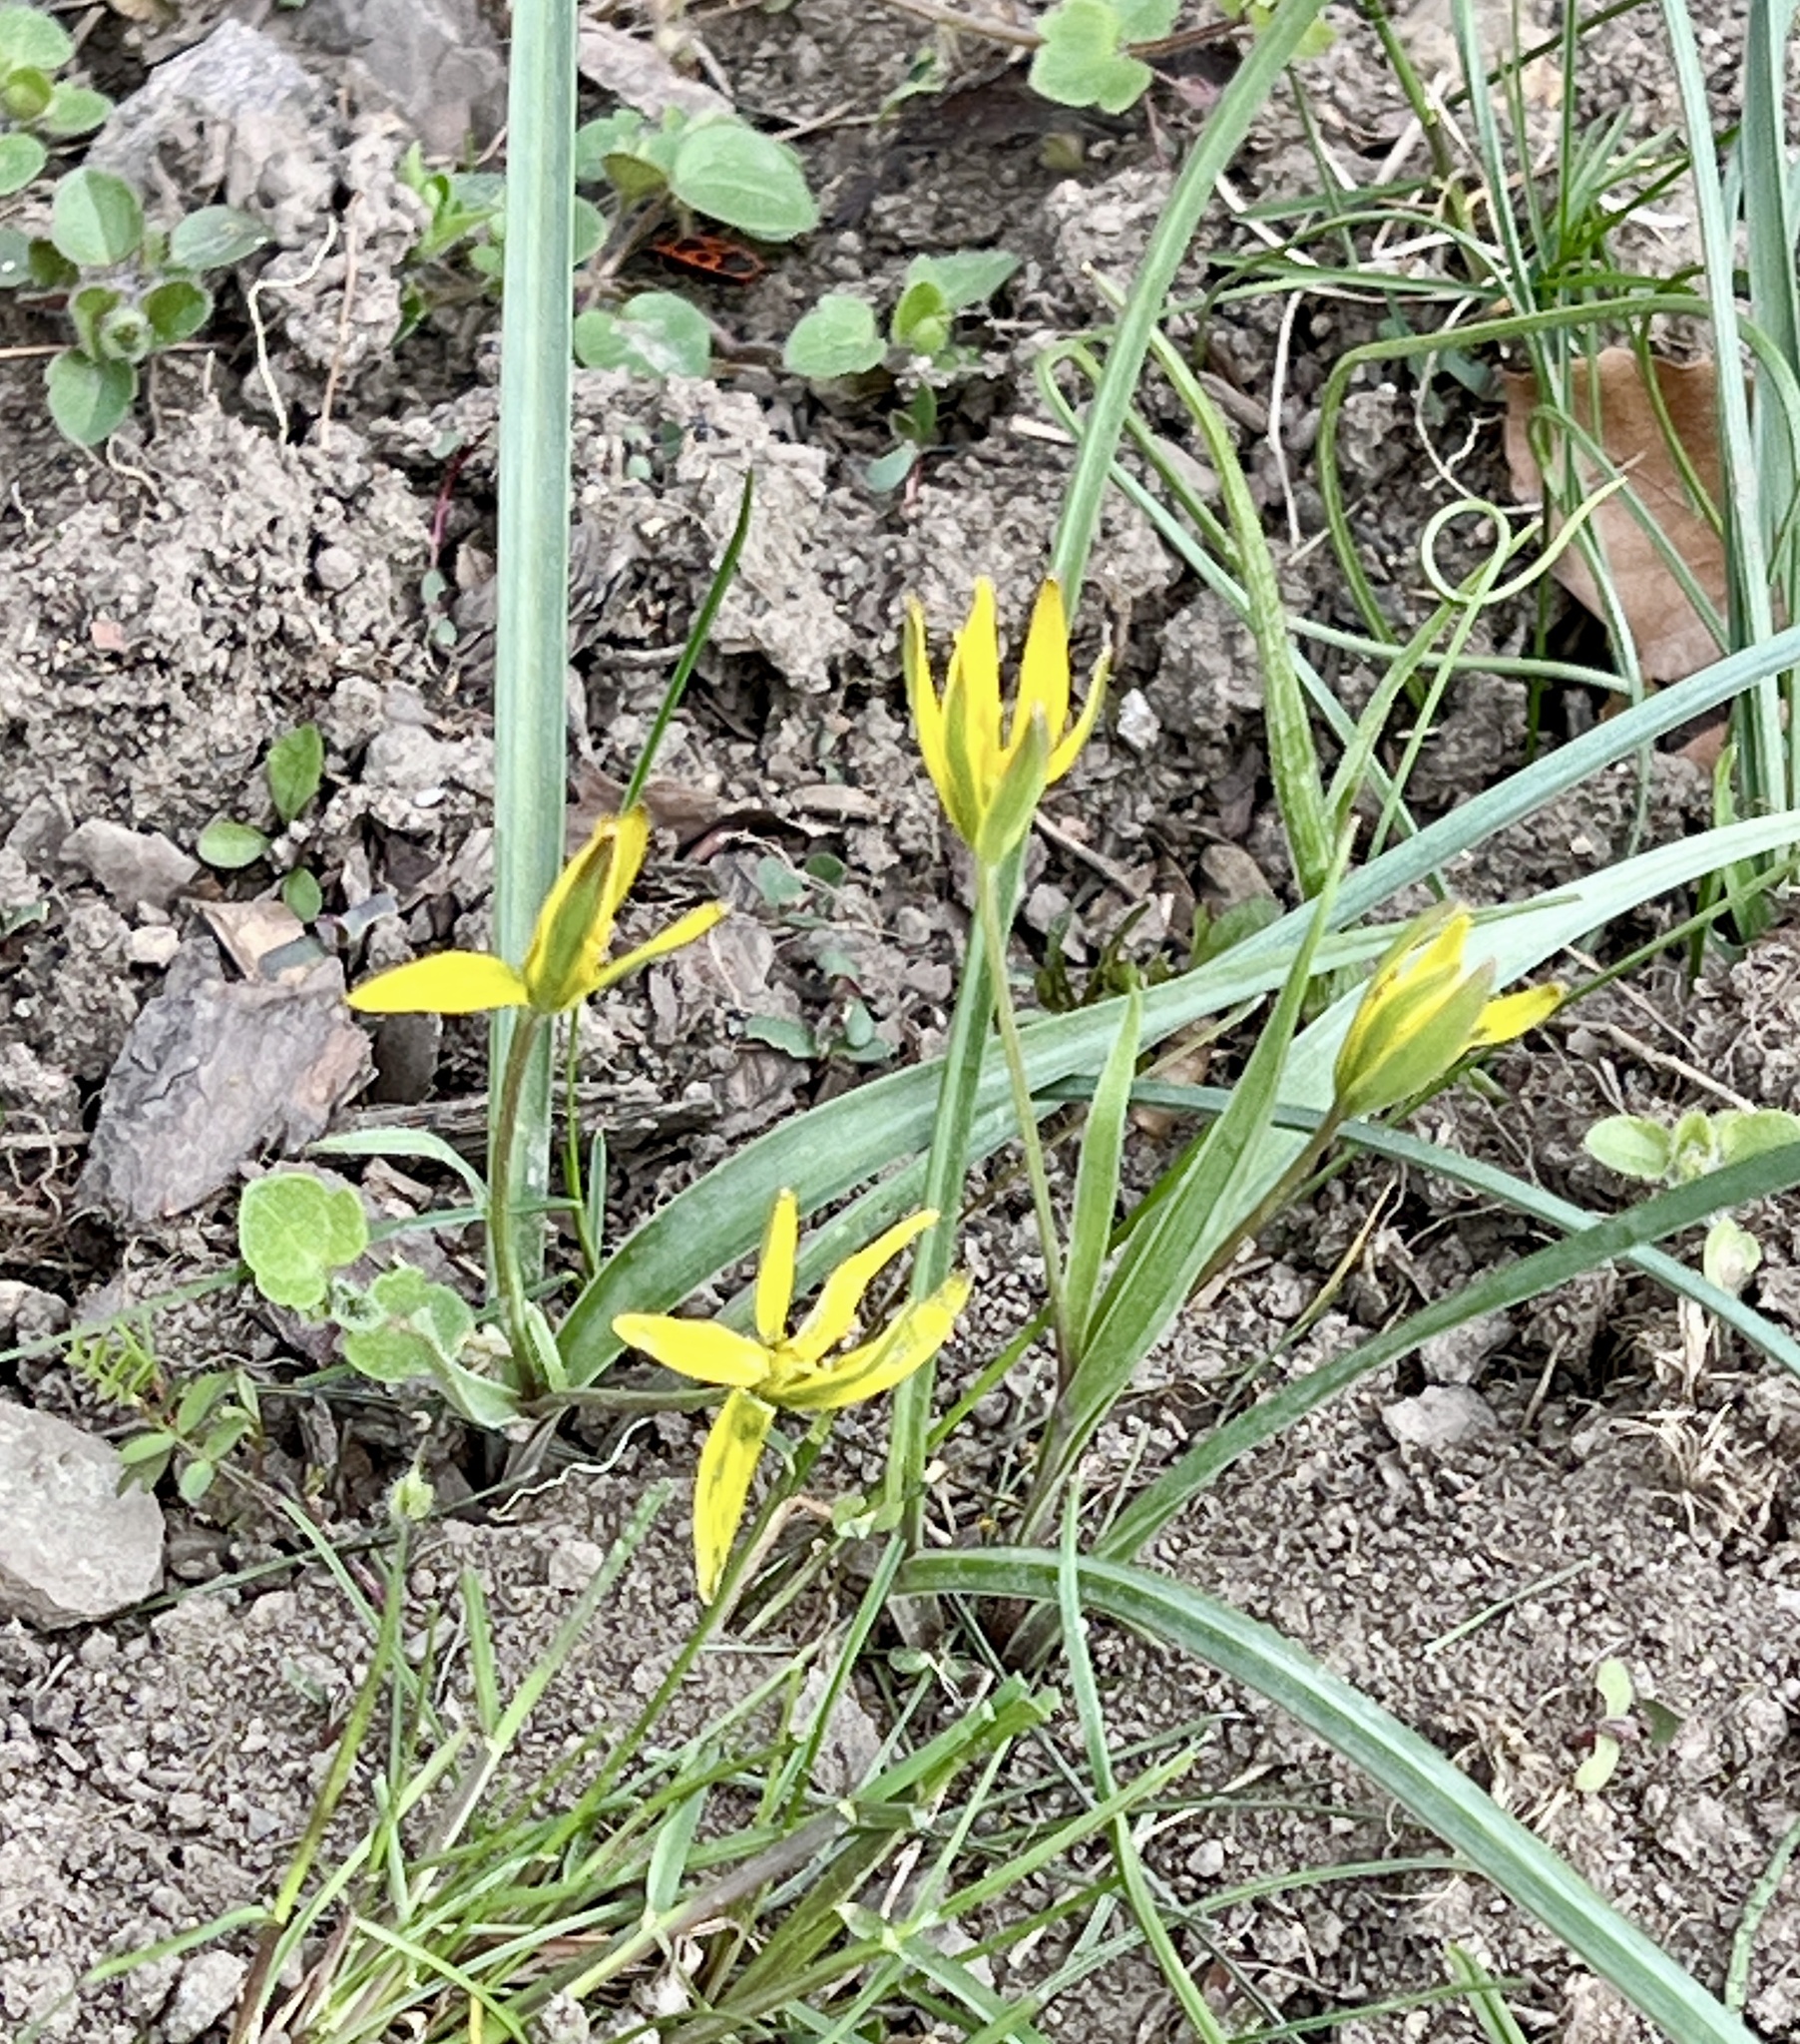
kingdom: Plantae
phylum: Tracheophyta
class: Liliopsida
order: Liliales
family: Liliaceae
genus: Gagea
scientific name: Gagea pratensis
